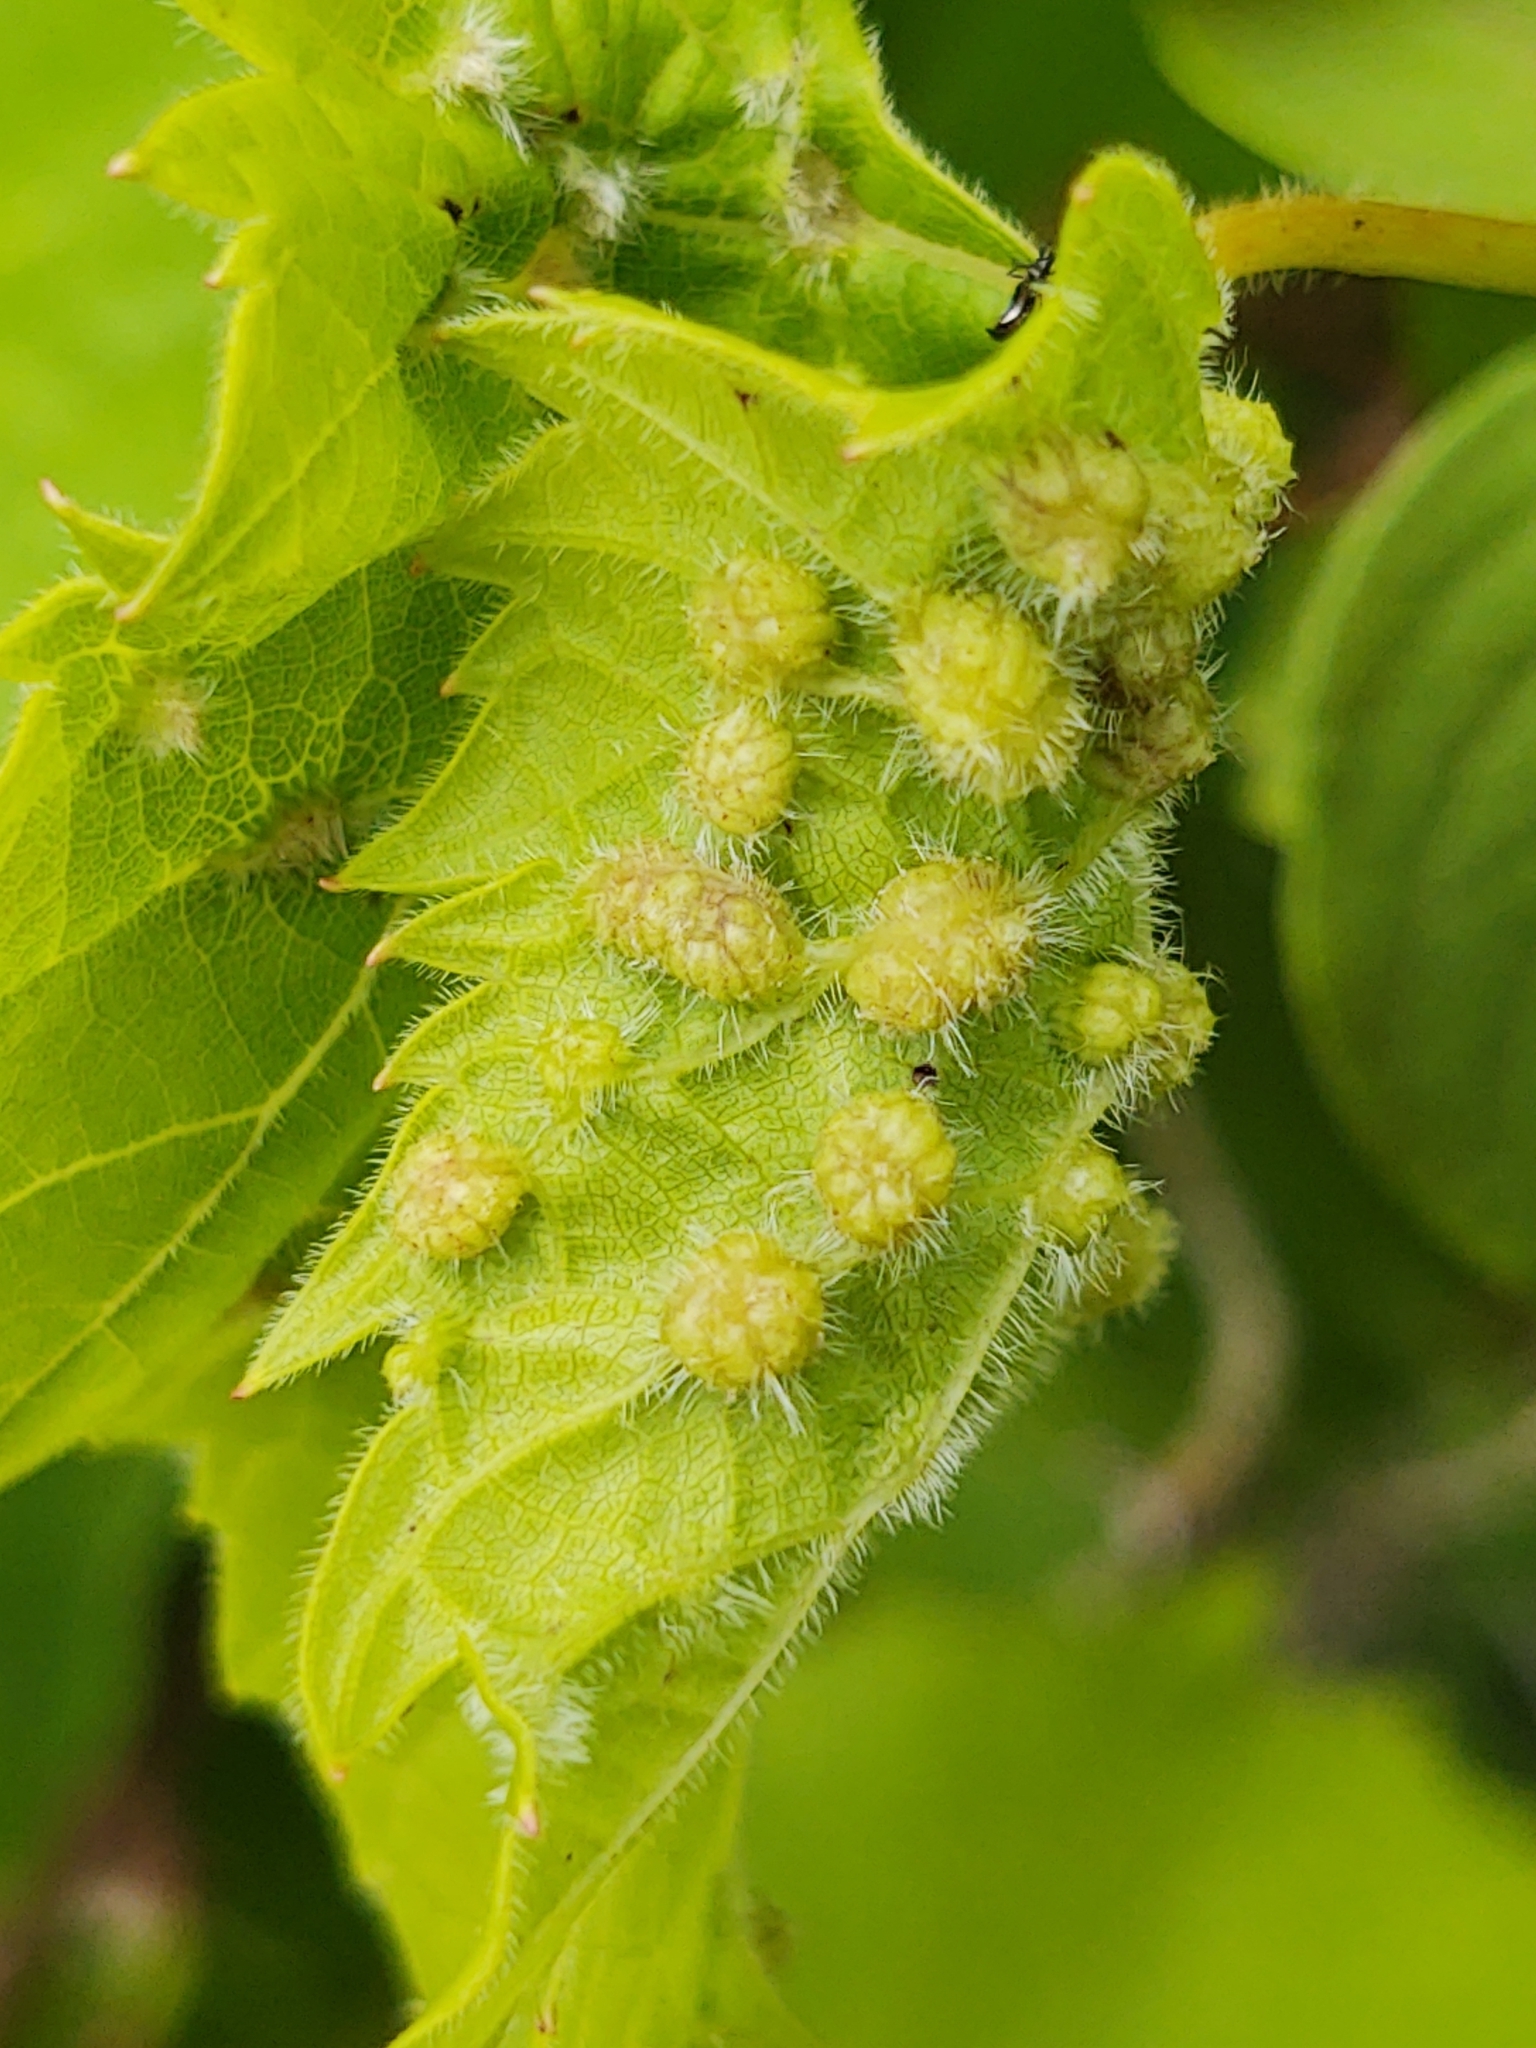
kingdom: Animalia
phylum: Arthropoda
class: Insecta
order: Hemiptera
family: Phylloxeridae
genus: Daktulosphaira
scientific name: Daktulosphaira vitifoliae
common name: Grape phylloxera
